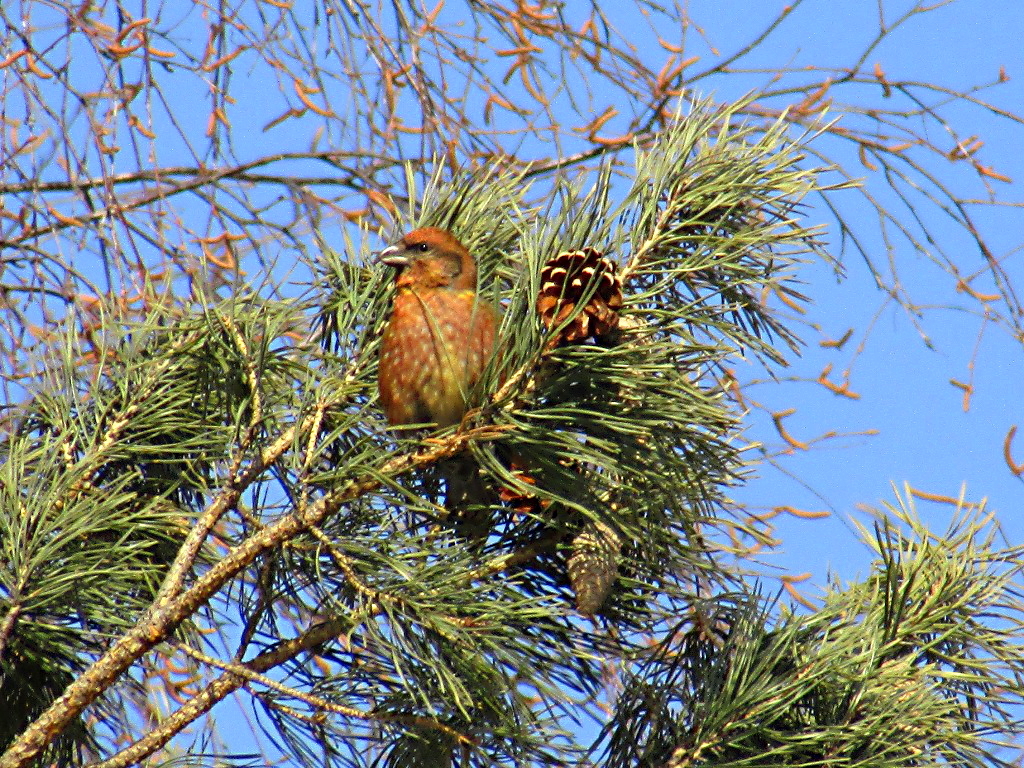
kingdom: Animalia
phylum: Chordata
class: Aves
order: Passeriformes
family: Fringillidae
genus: Loxia
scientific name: Loxia curvirostra
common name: Red crossbill
